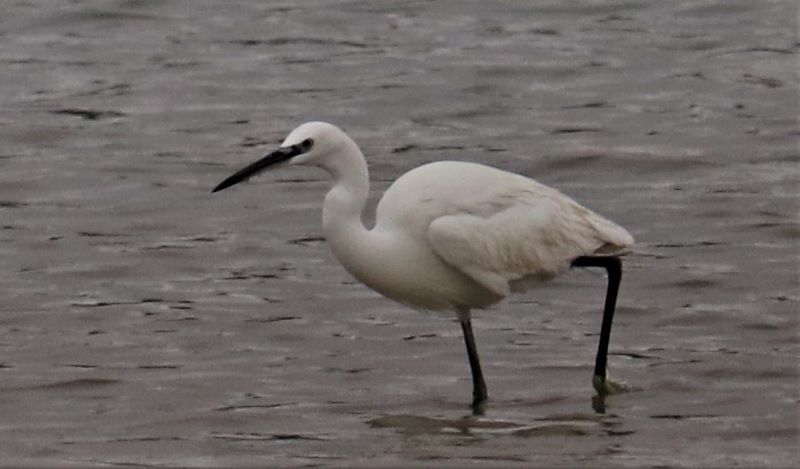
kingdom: Animalia
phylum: Chordata
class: Aves
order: Pelecaniformes
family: Ardeidae
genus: Egretta
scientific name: Egretta garzetta
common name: Little egret
